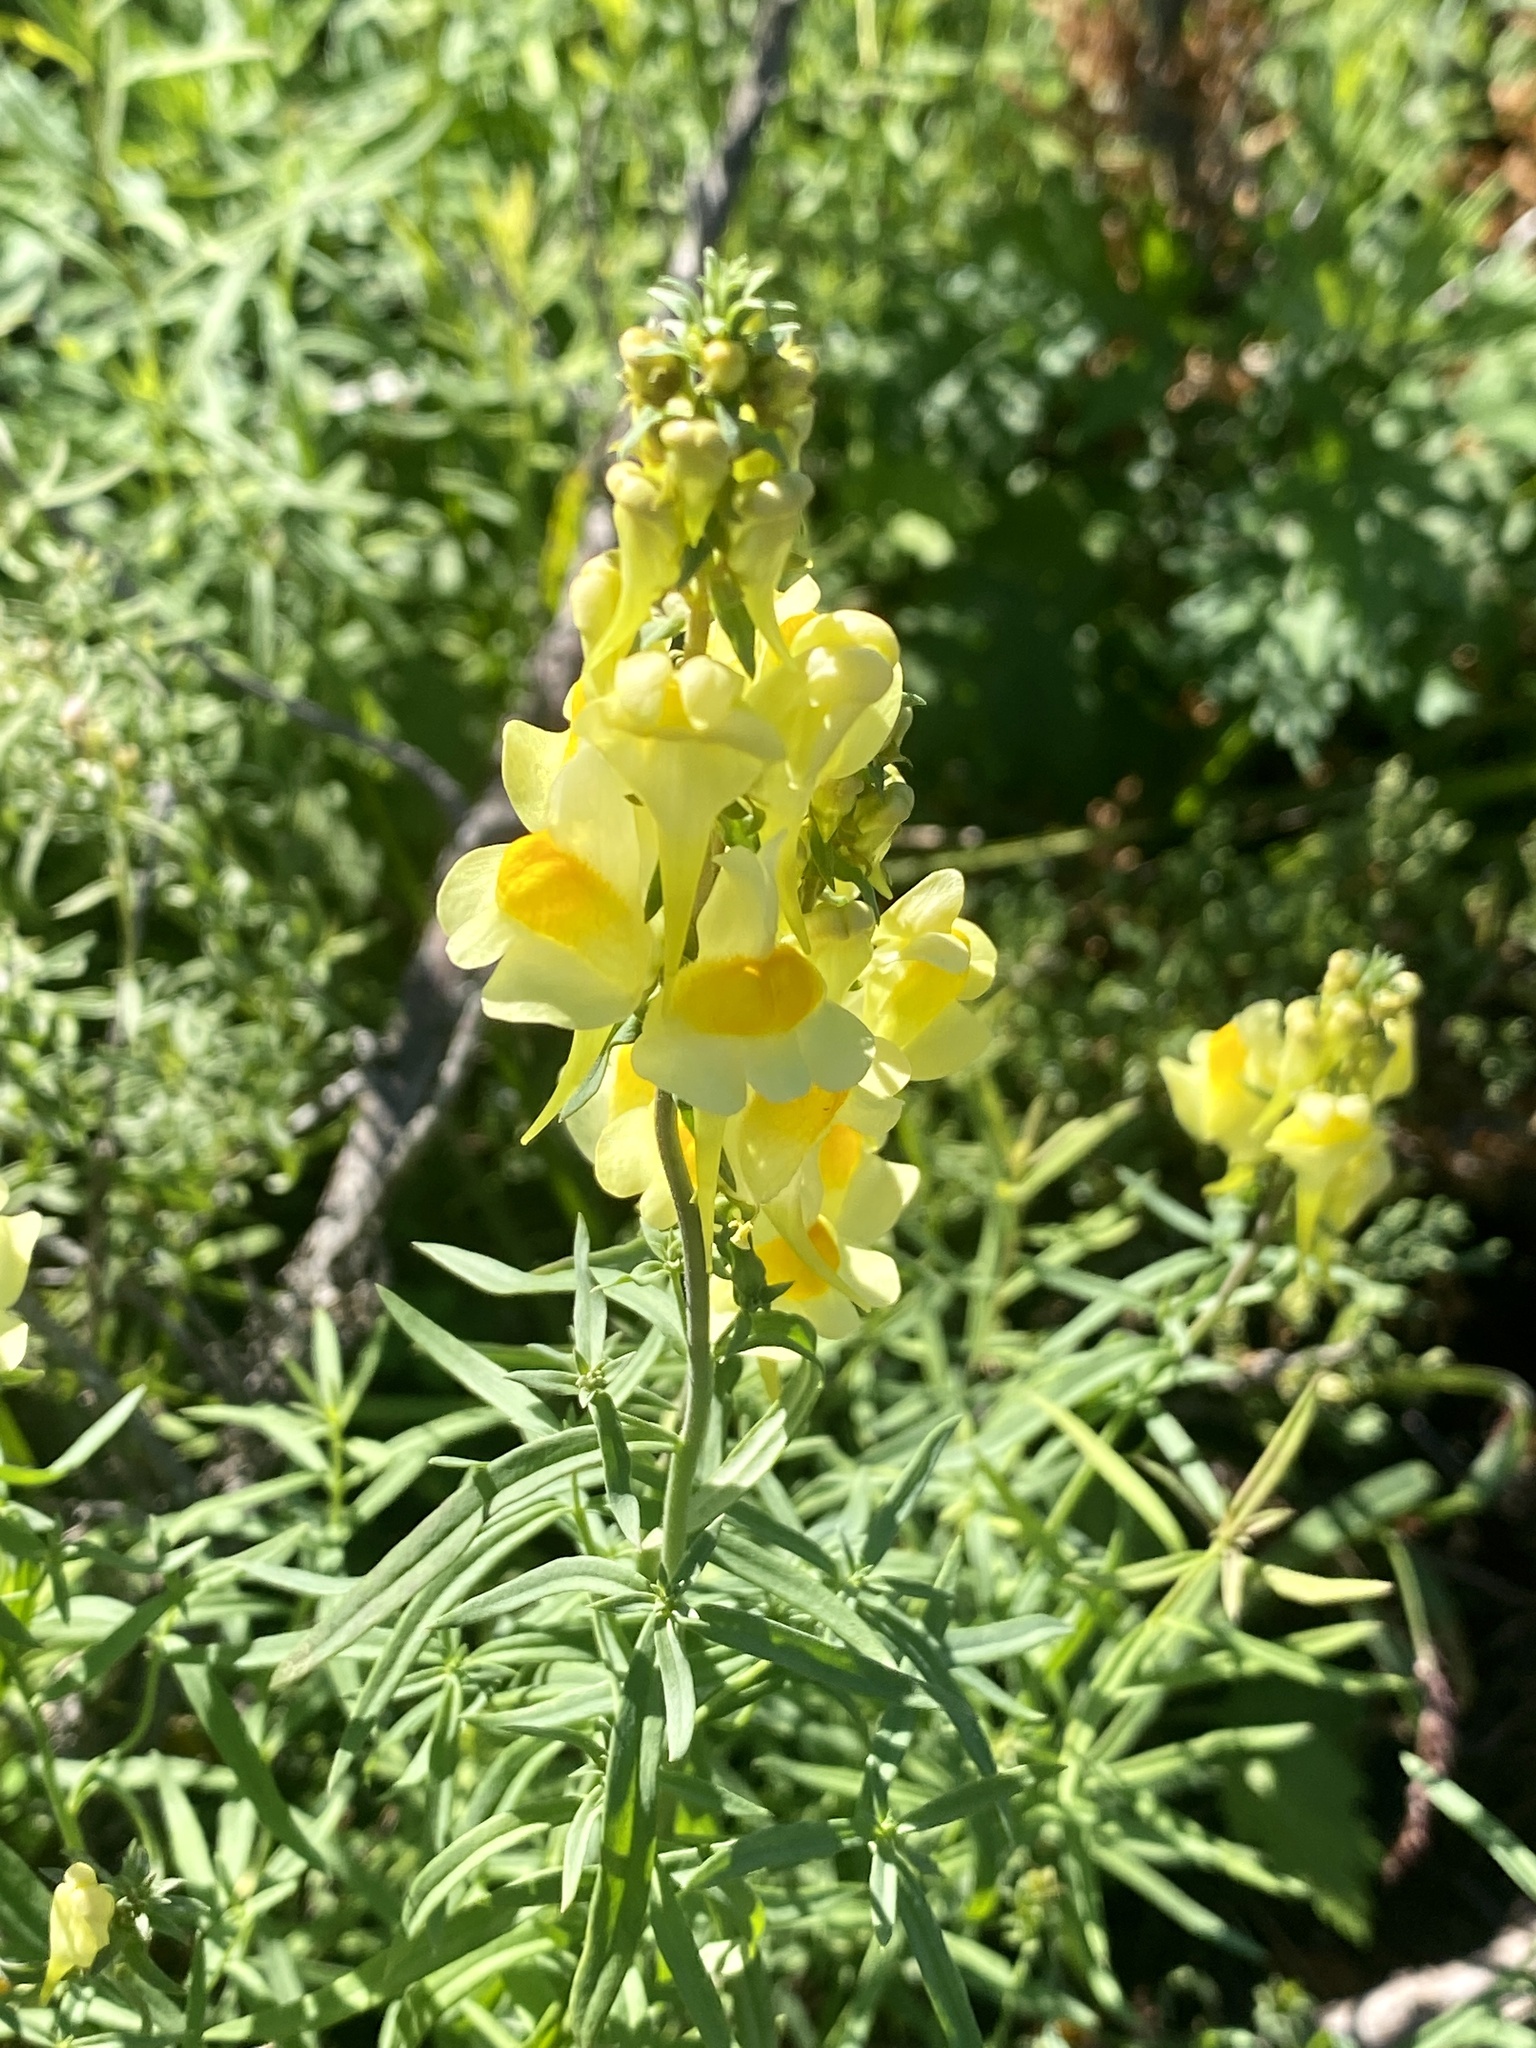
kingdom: Plantae
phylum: Tracheophyta
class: Magnoliopsida
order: Lamiales
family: Plantaginaceae
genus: Linaria
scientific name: Linaria vulgaris
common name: Butter and eggs
